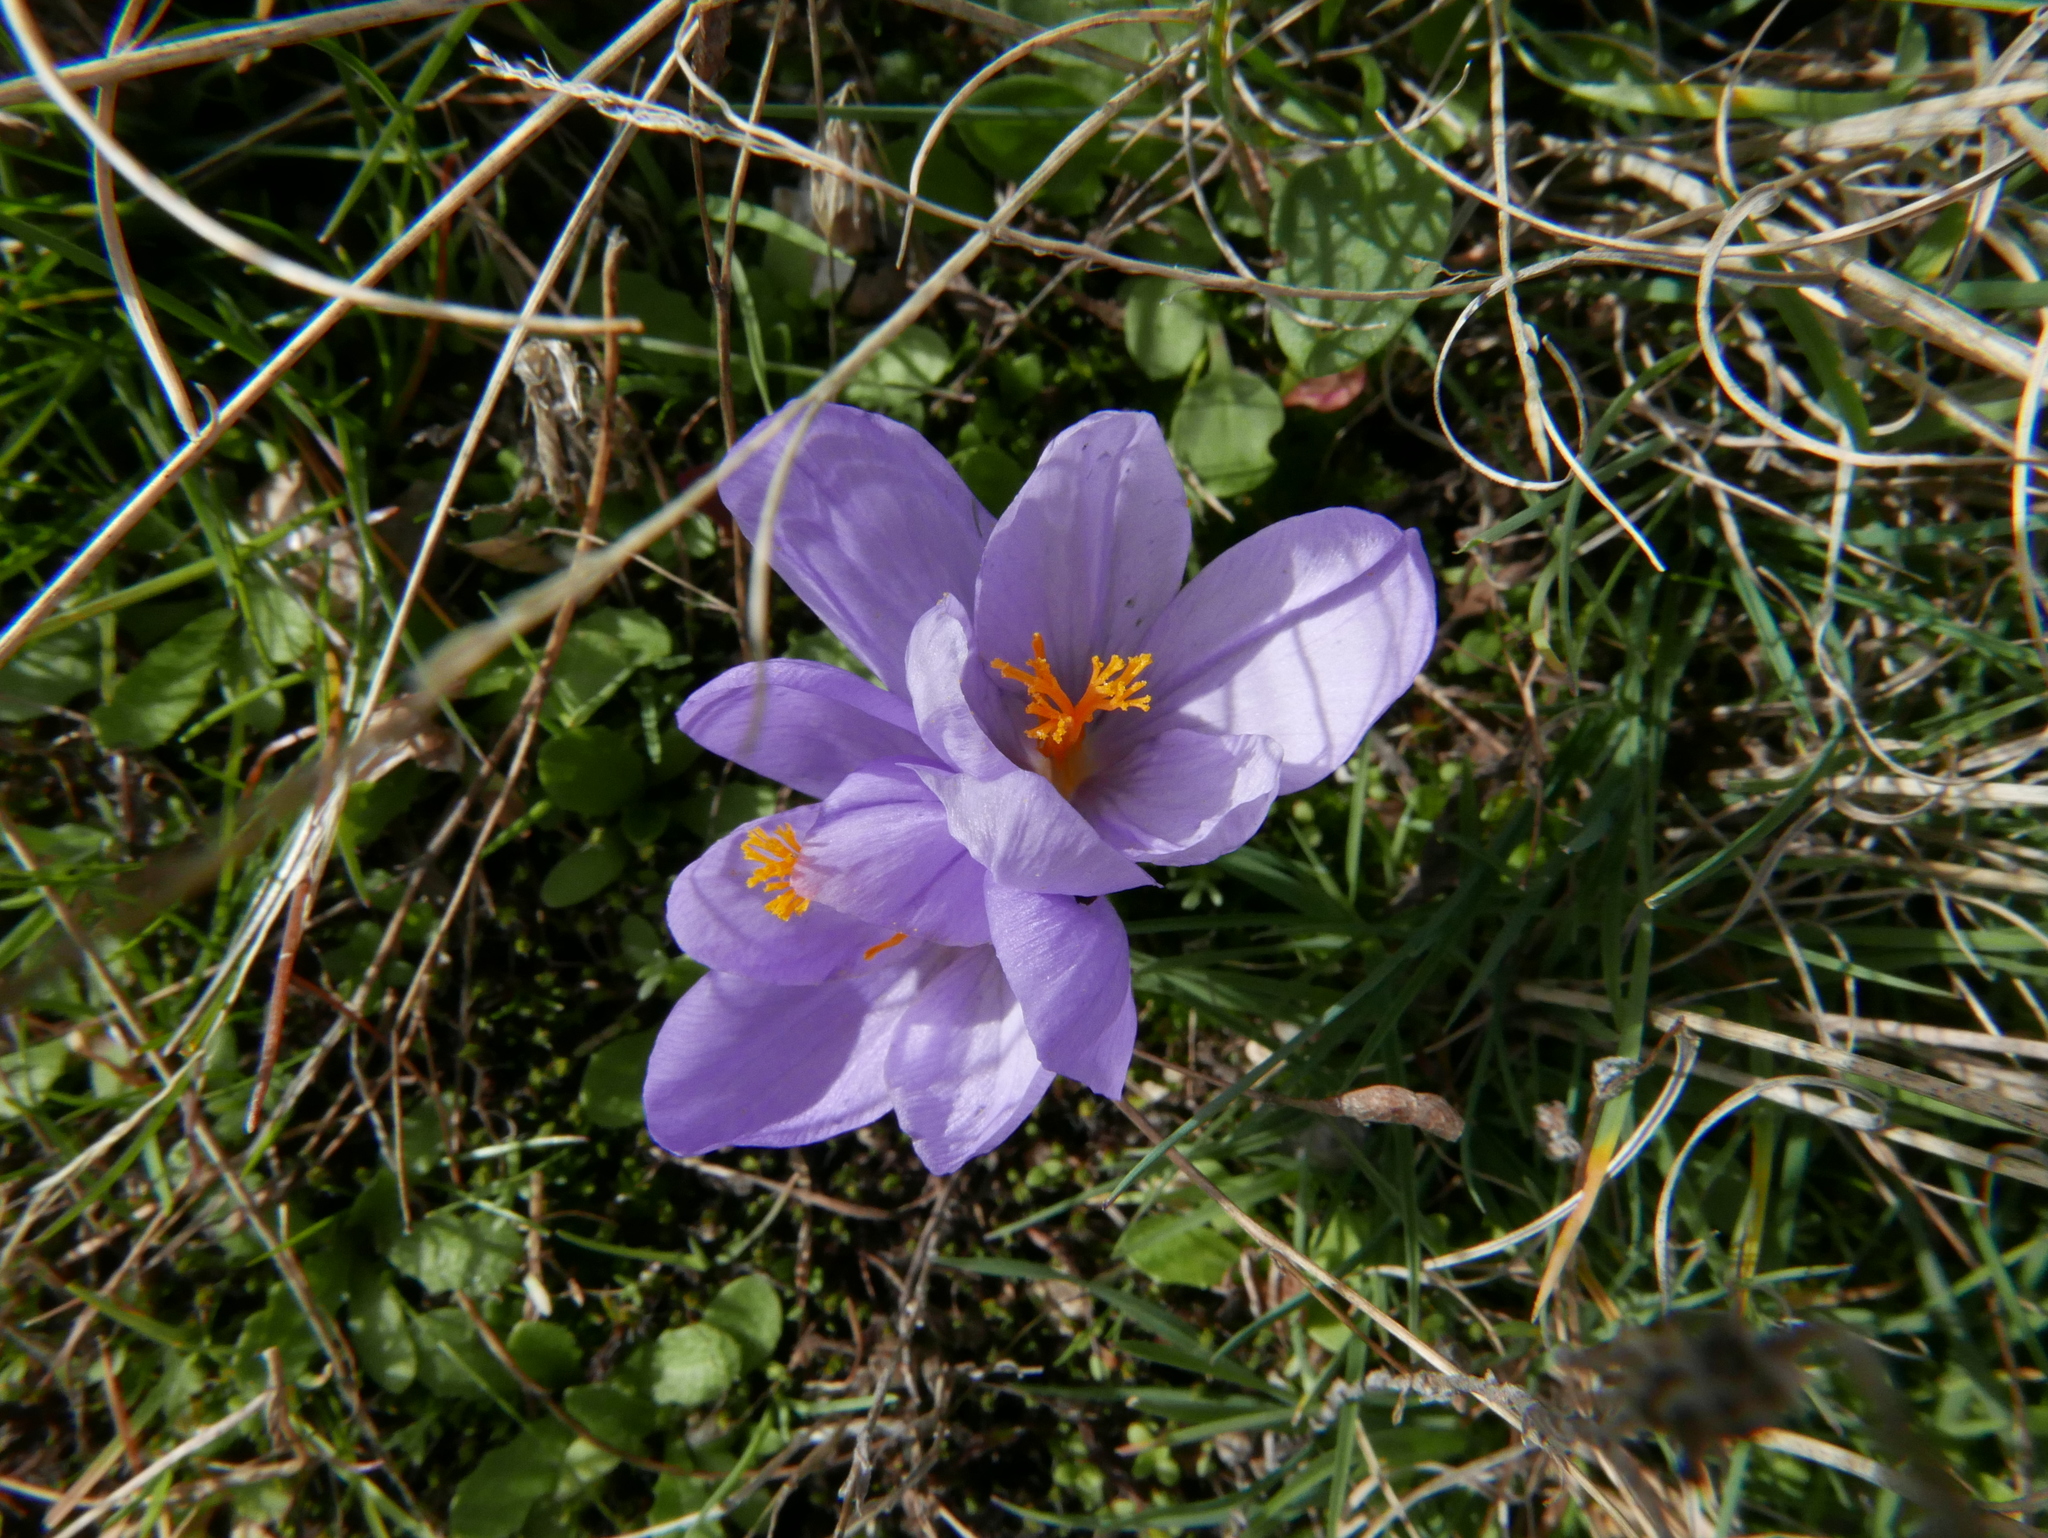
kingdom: Plantae
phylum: Tracheophyta
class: Liliopsida
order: Asparagales
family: Iridaceae
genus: Crocus
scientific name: Crocus serotinus
